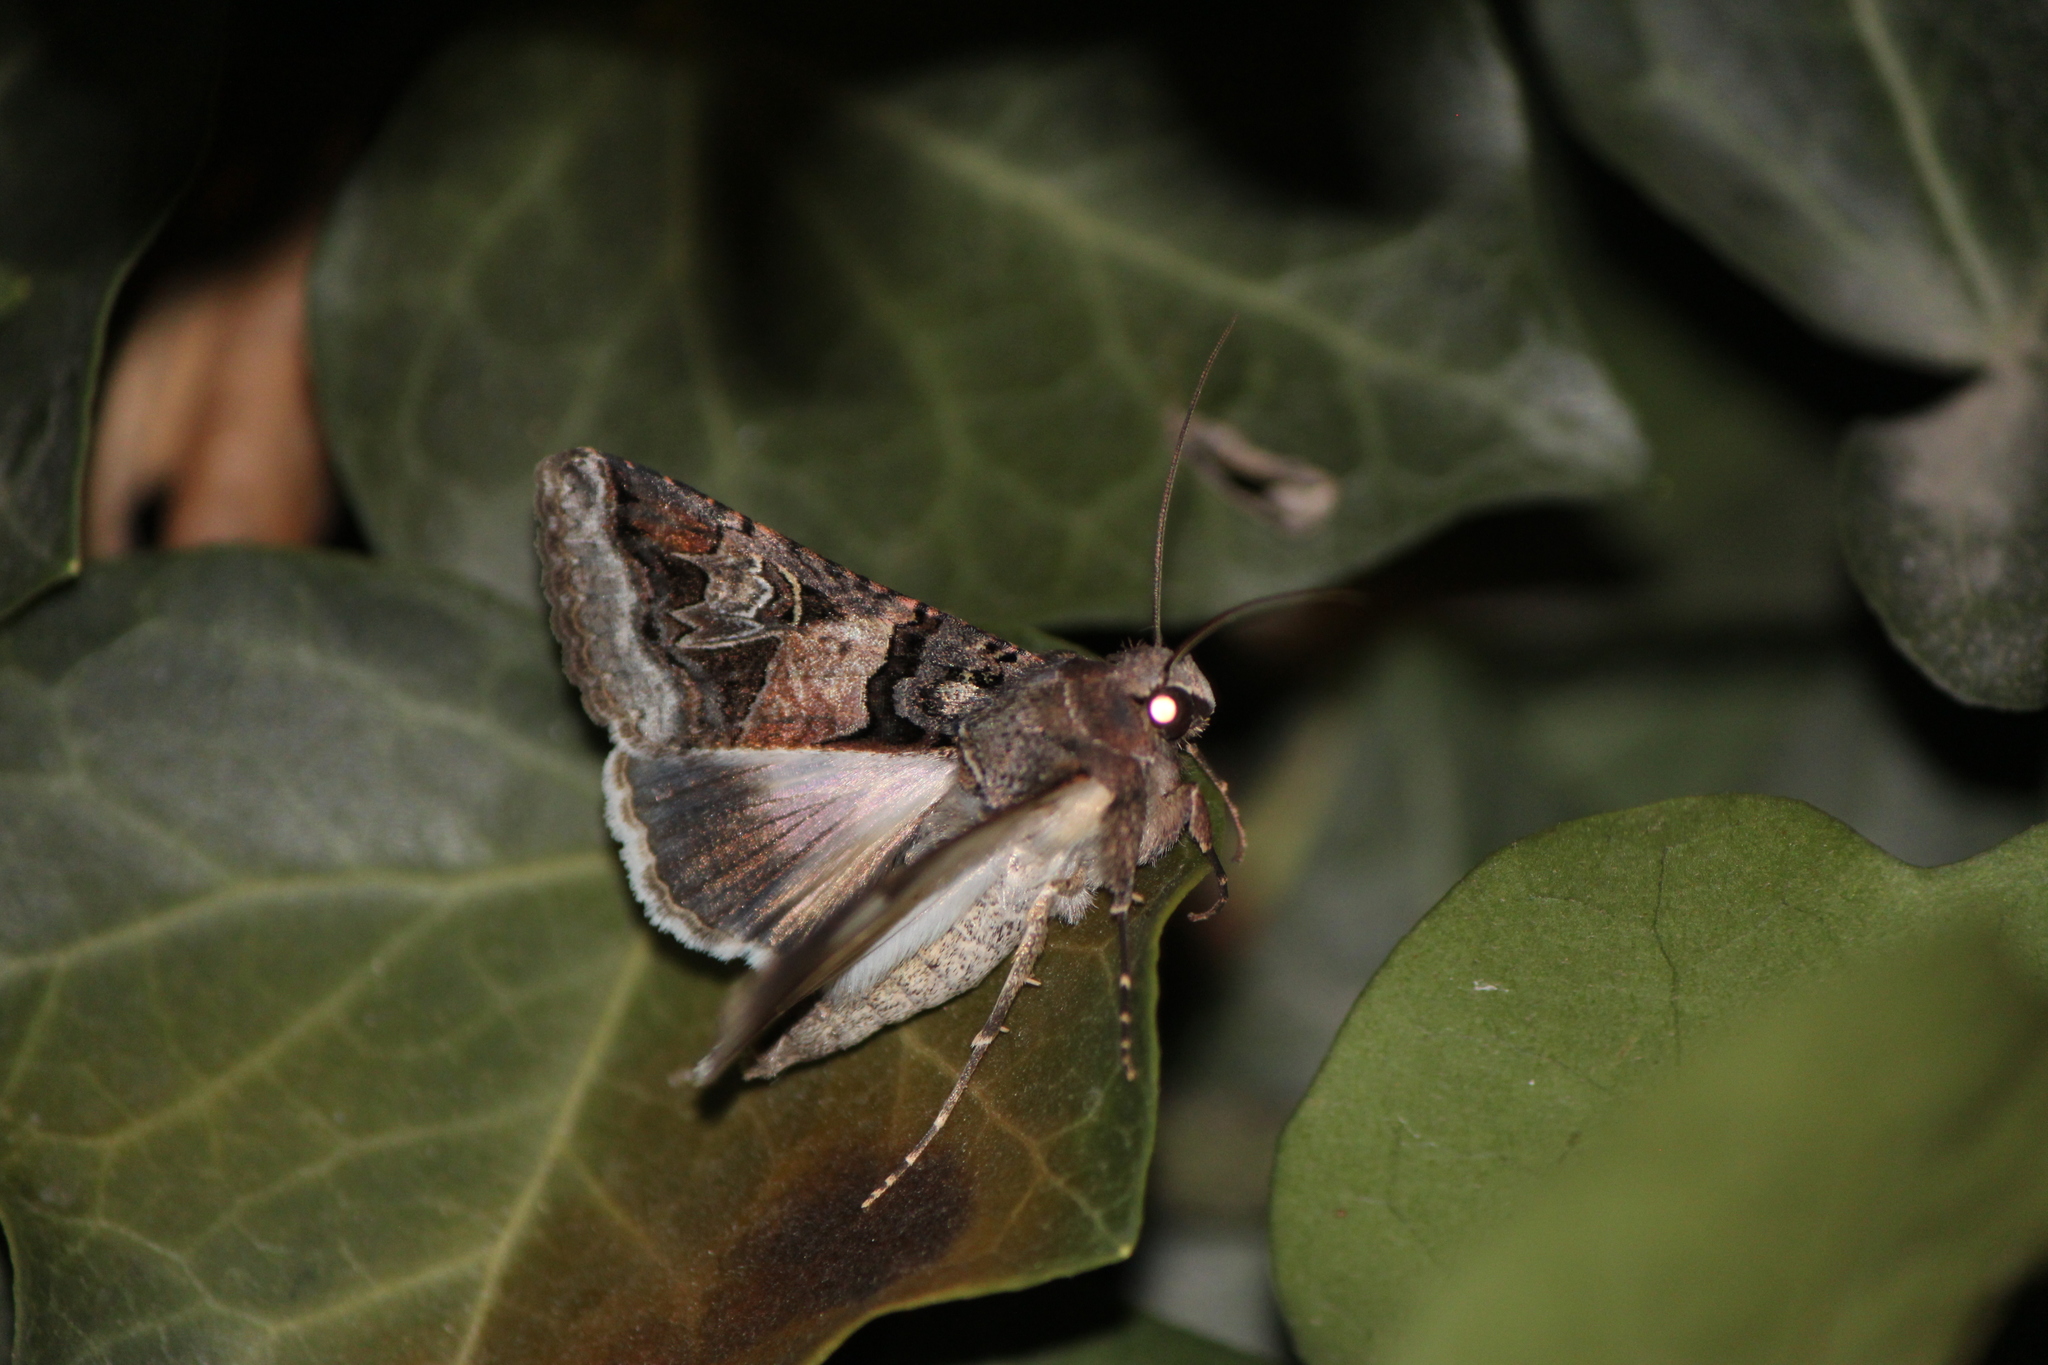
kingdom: Animalia
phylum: Arthropoda
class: Insecta
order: Lepidoptera
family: Erebidae
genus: Melipotis
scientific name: Melipotis novanda
